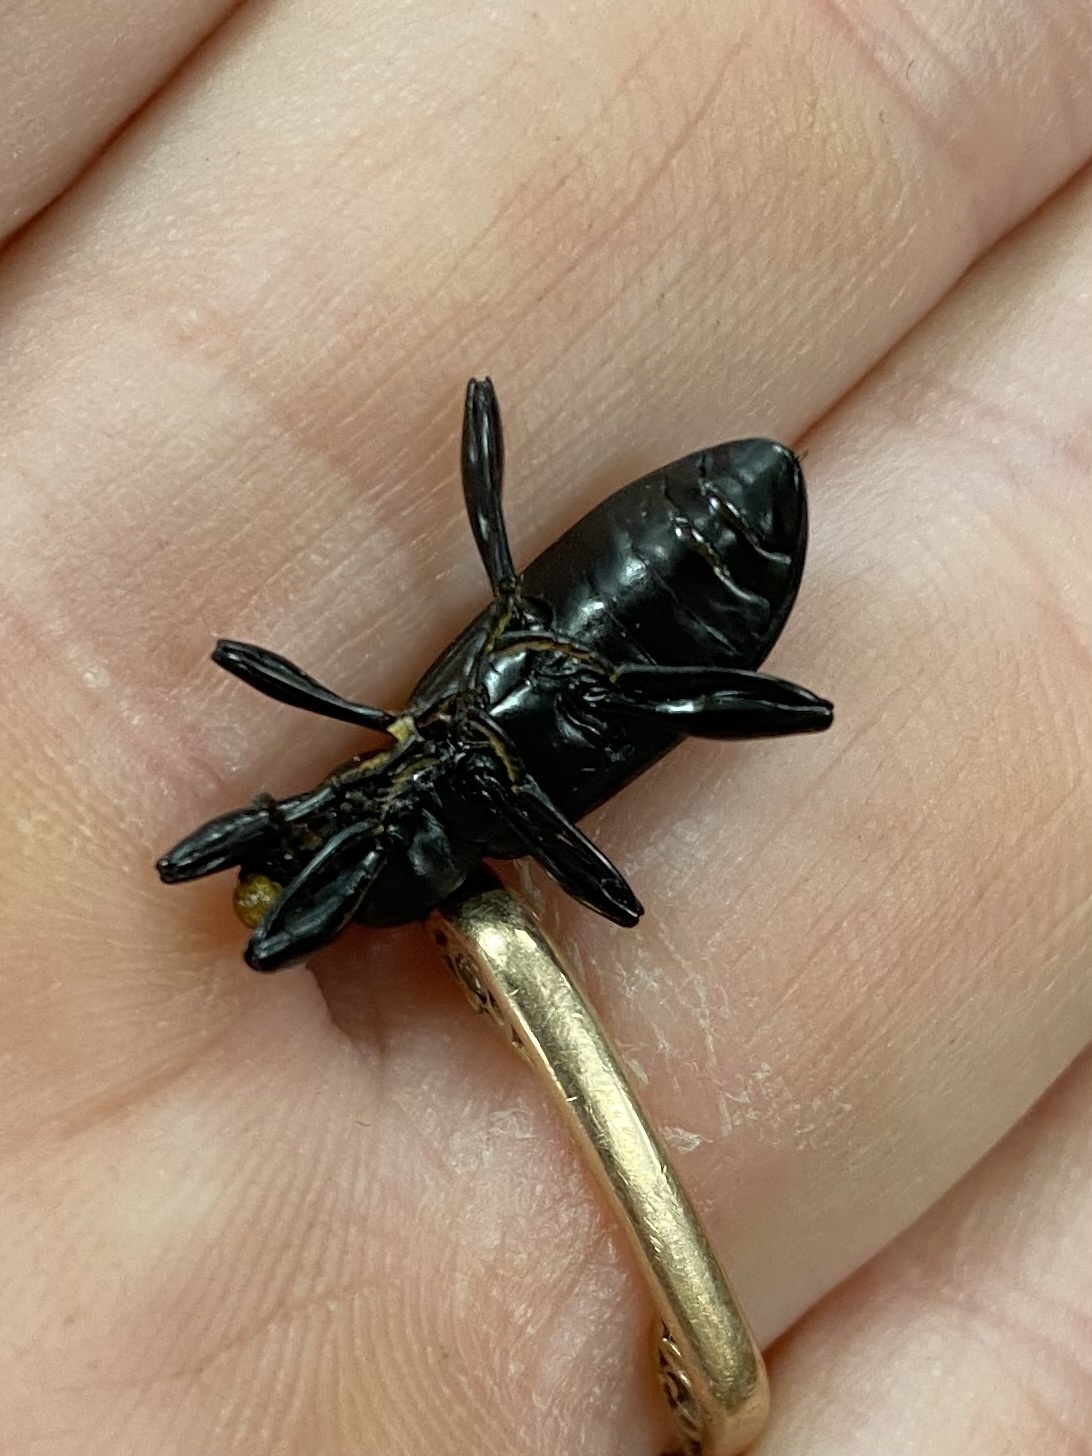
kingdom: Animalia
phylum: Arthropoda
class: Insecta
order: Coleoptera
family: Tenebrionidae
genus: Merinus
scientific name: Merinus laevis
